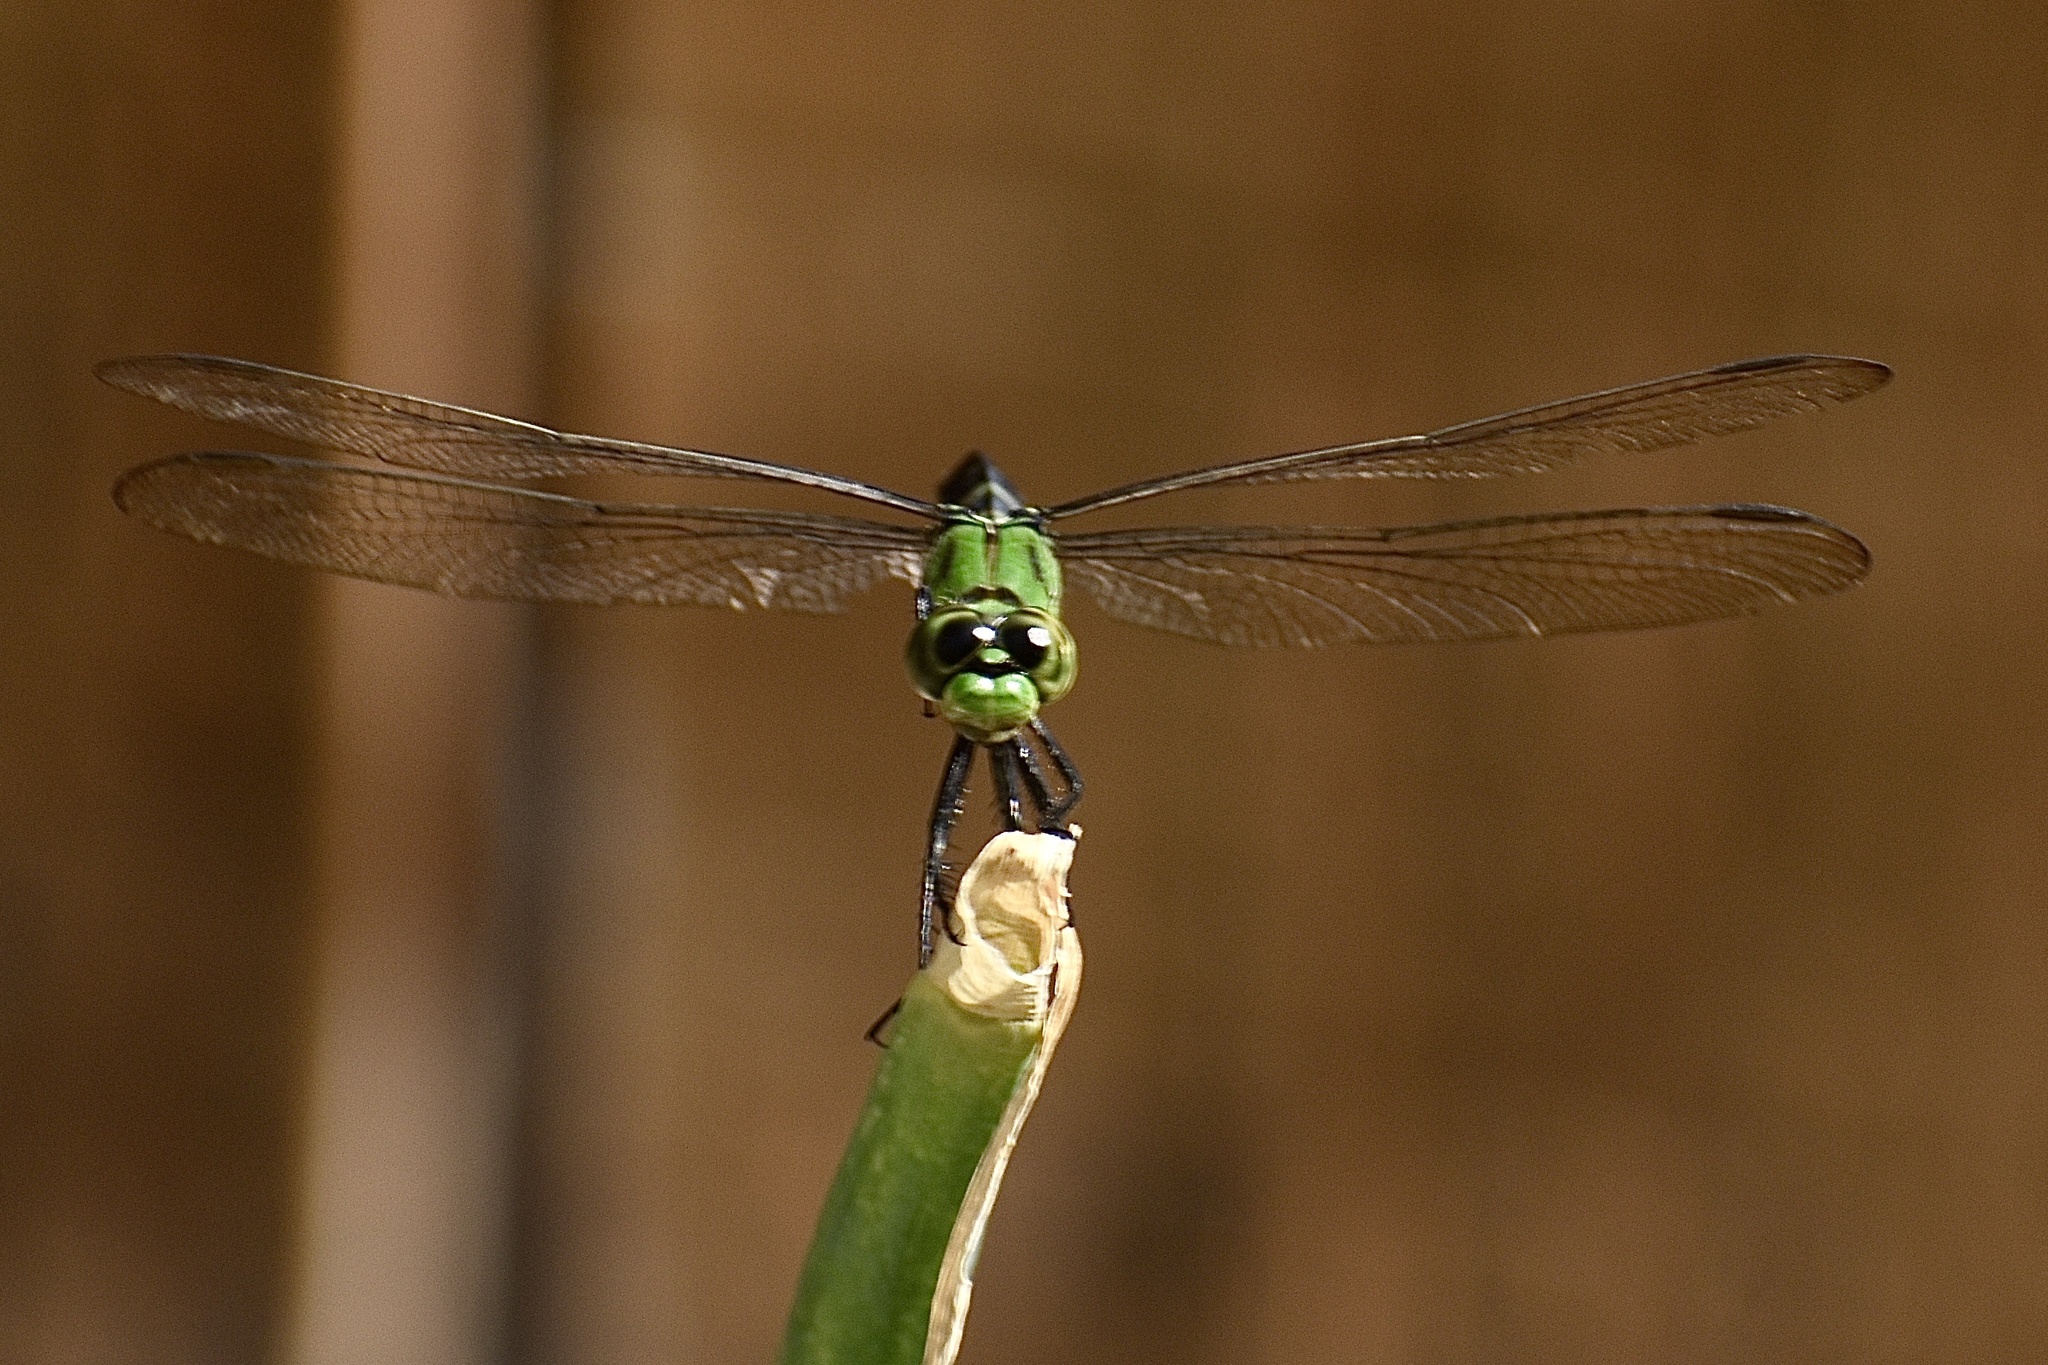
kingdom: Animalia
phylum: Arthropoda
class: Insecta
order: Odonata
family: Libellulidae
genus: Erythemis
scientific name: Erythemis simplicicollis
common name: Eastern pondhawk
